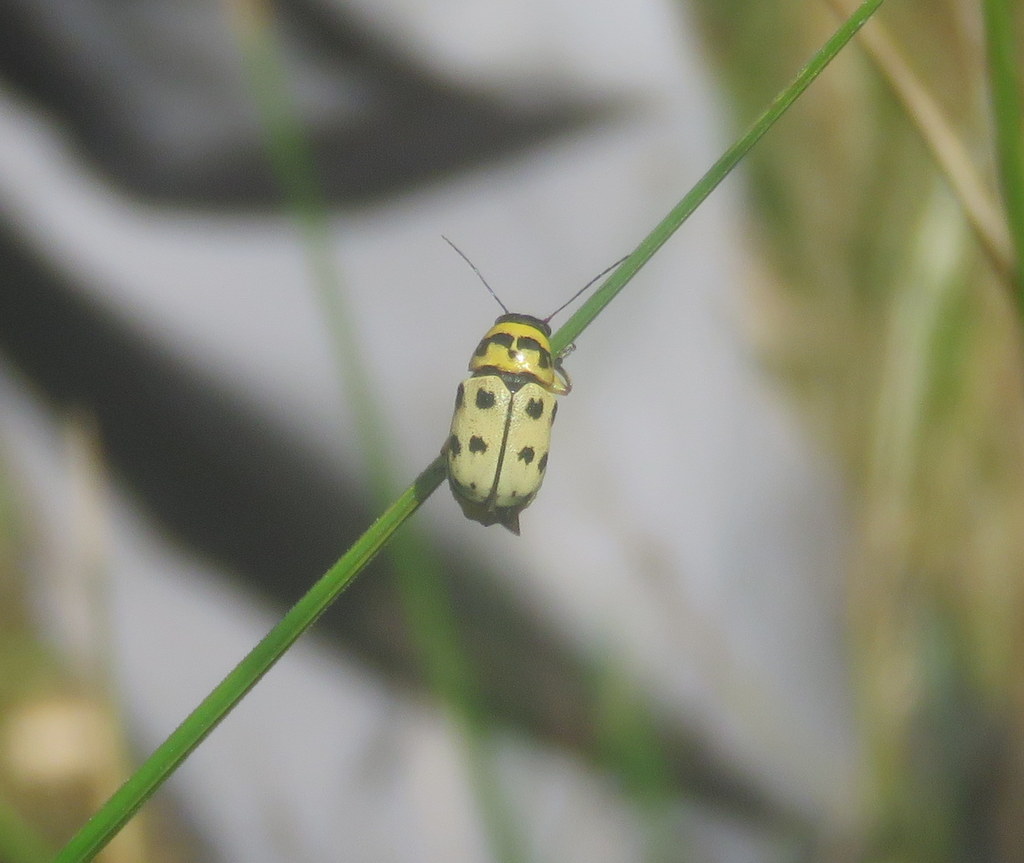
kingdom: Animalia
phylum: Arthropoda
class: Insecta
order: Coleoptera
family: Chrysomelidae
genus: Metallactus
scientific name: Metallactus pollens
